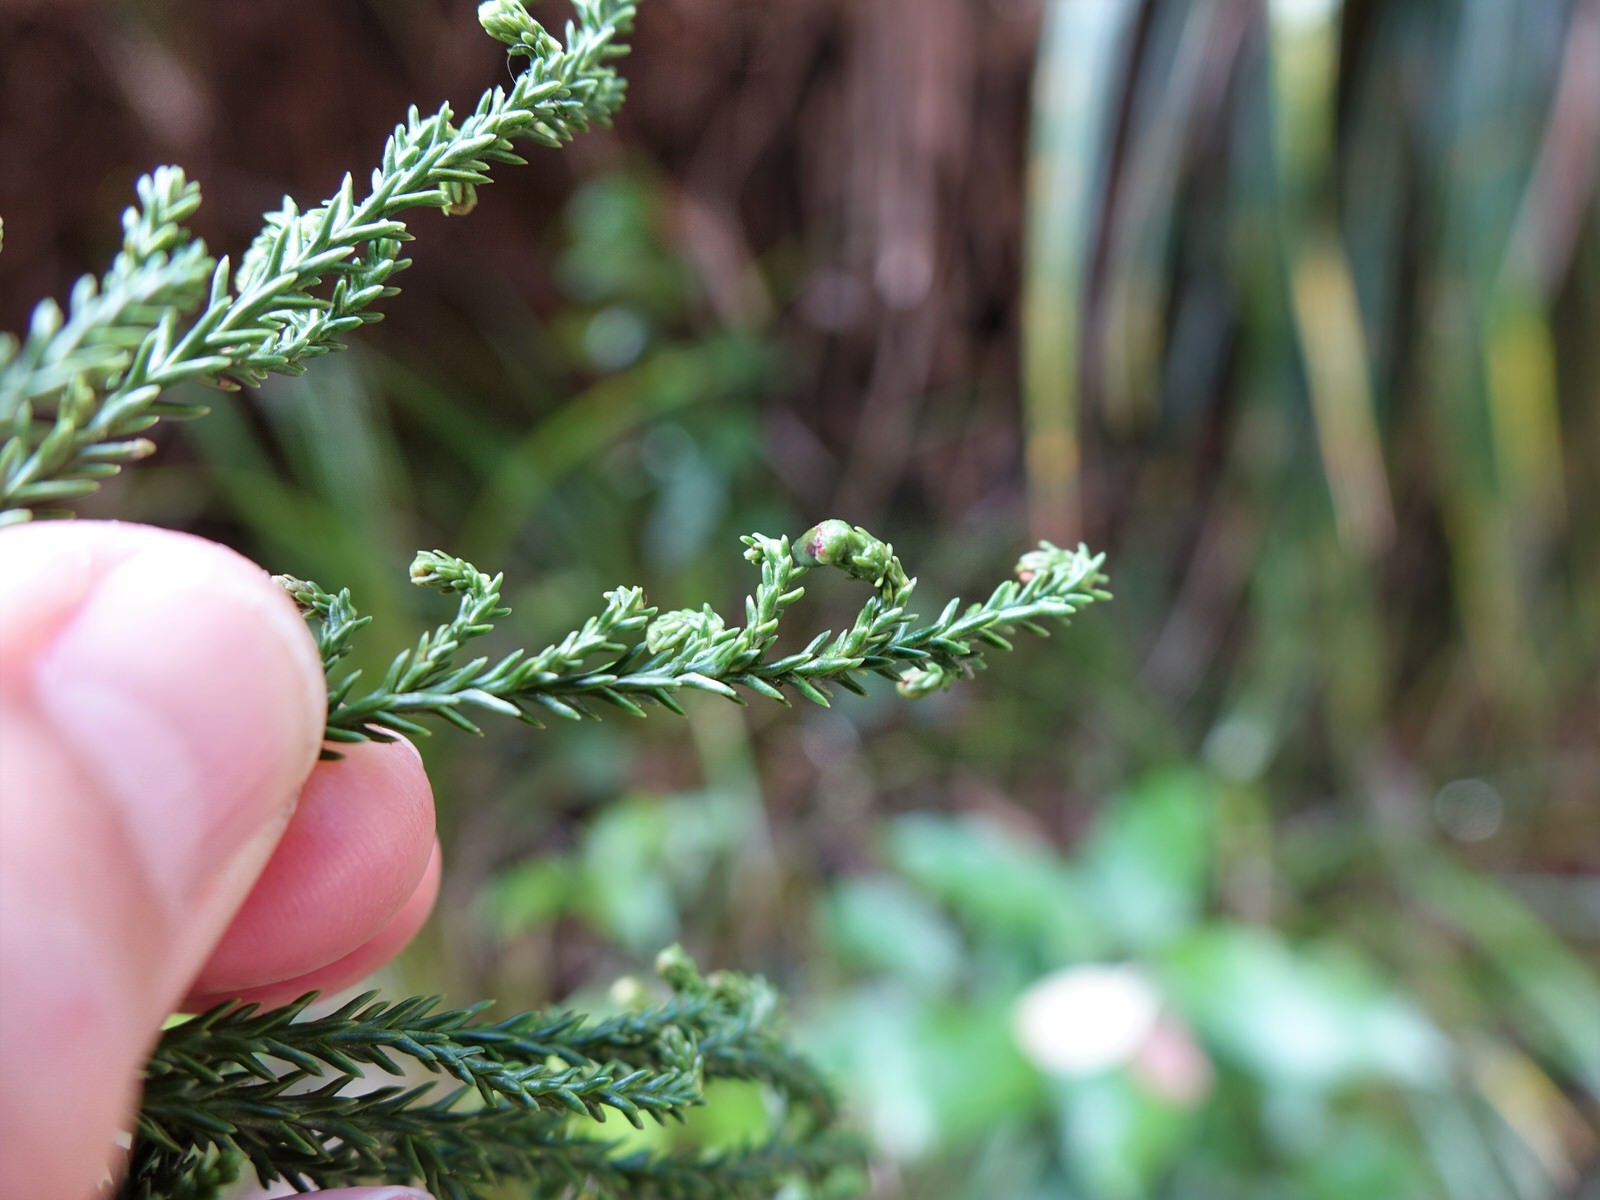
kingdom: Plantae
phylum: Tracheophyta
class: Pinopsida
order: Pinales
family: Podocarpaceae
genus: Dacrydium
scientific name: Dacrydium cupressinum
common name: Red pine
